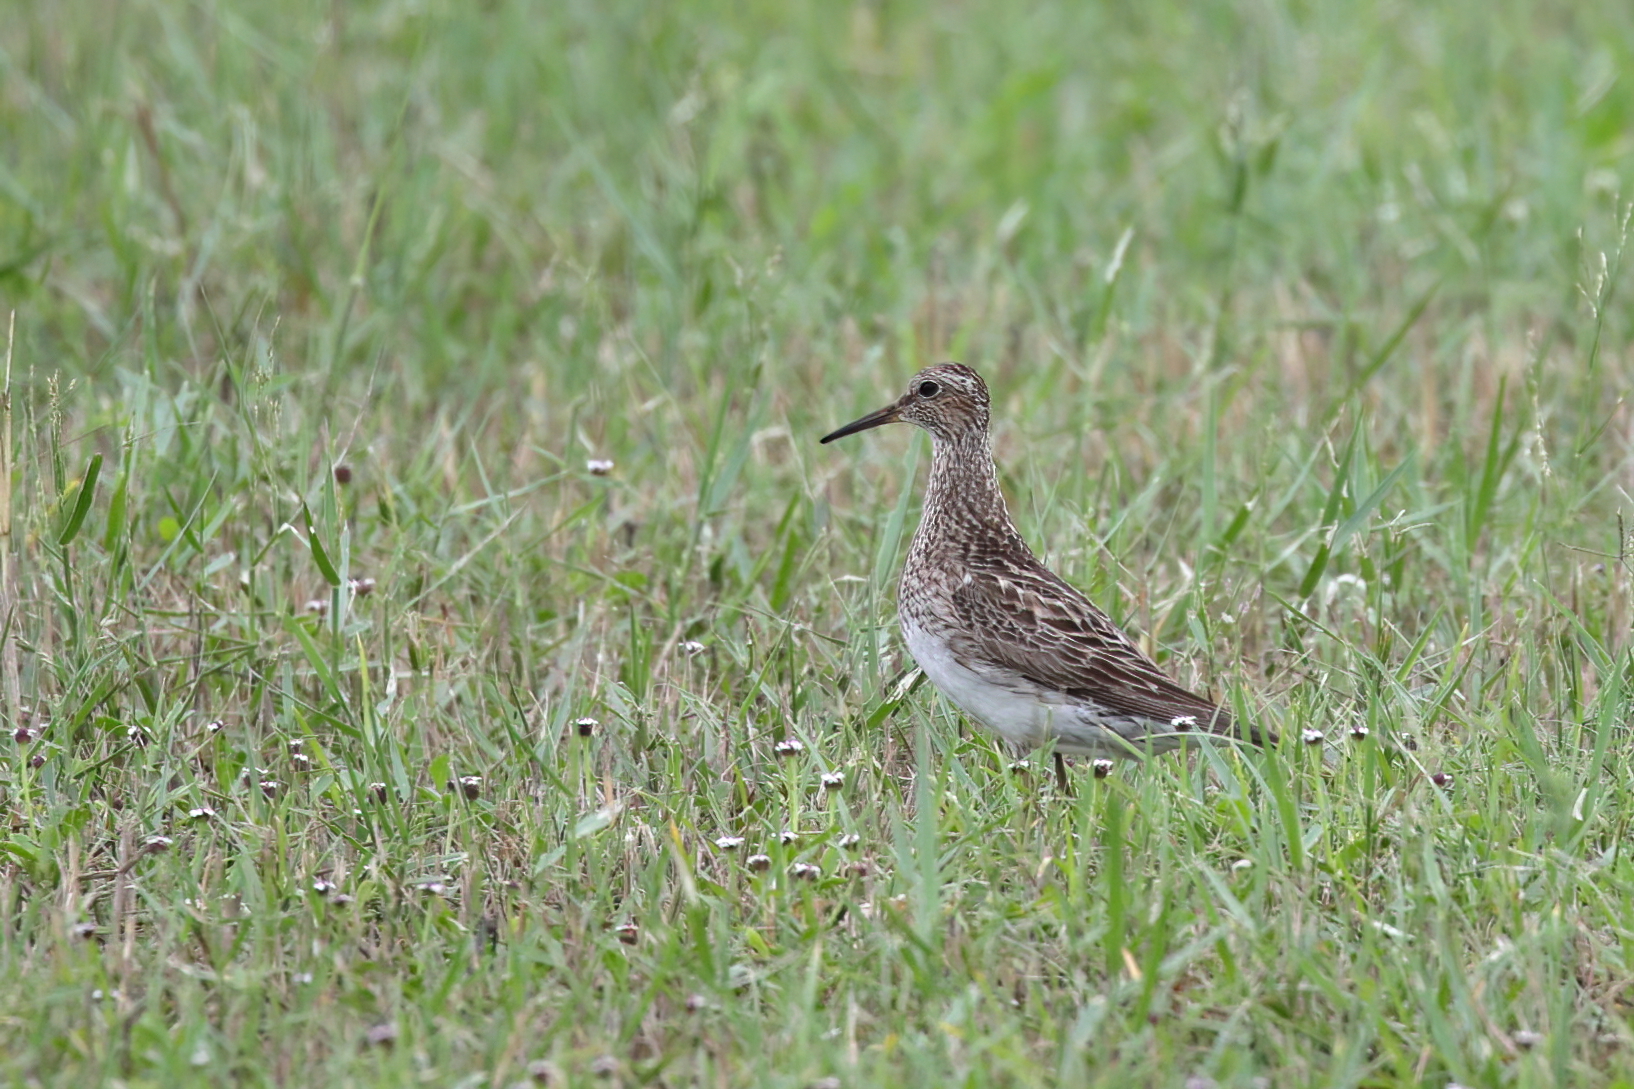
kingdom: Animalia
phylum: Chordata
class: Aves
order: Charadriiformes
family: Scolopacidae
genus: Calidris
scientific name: Calidris melanotos
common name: Pectoral sandpiper
